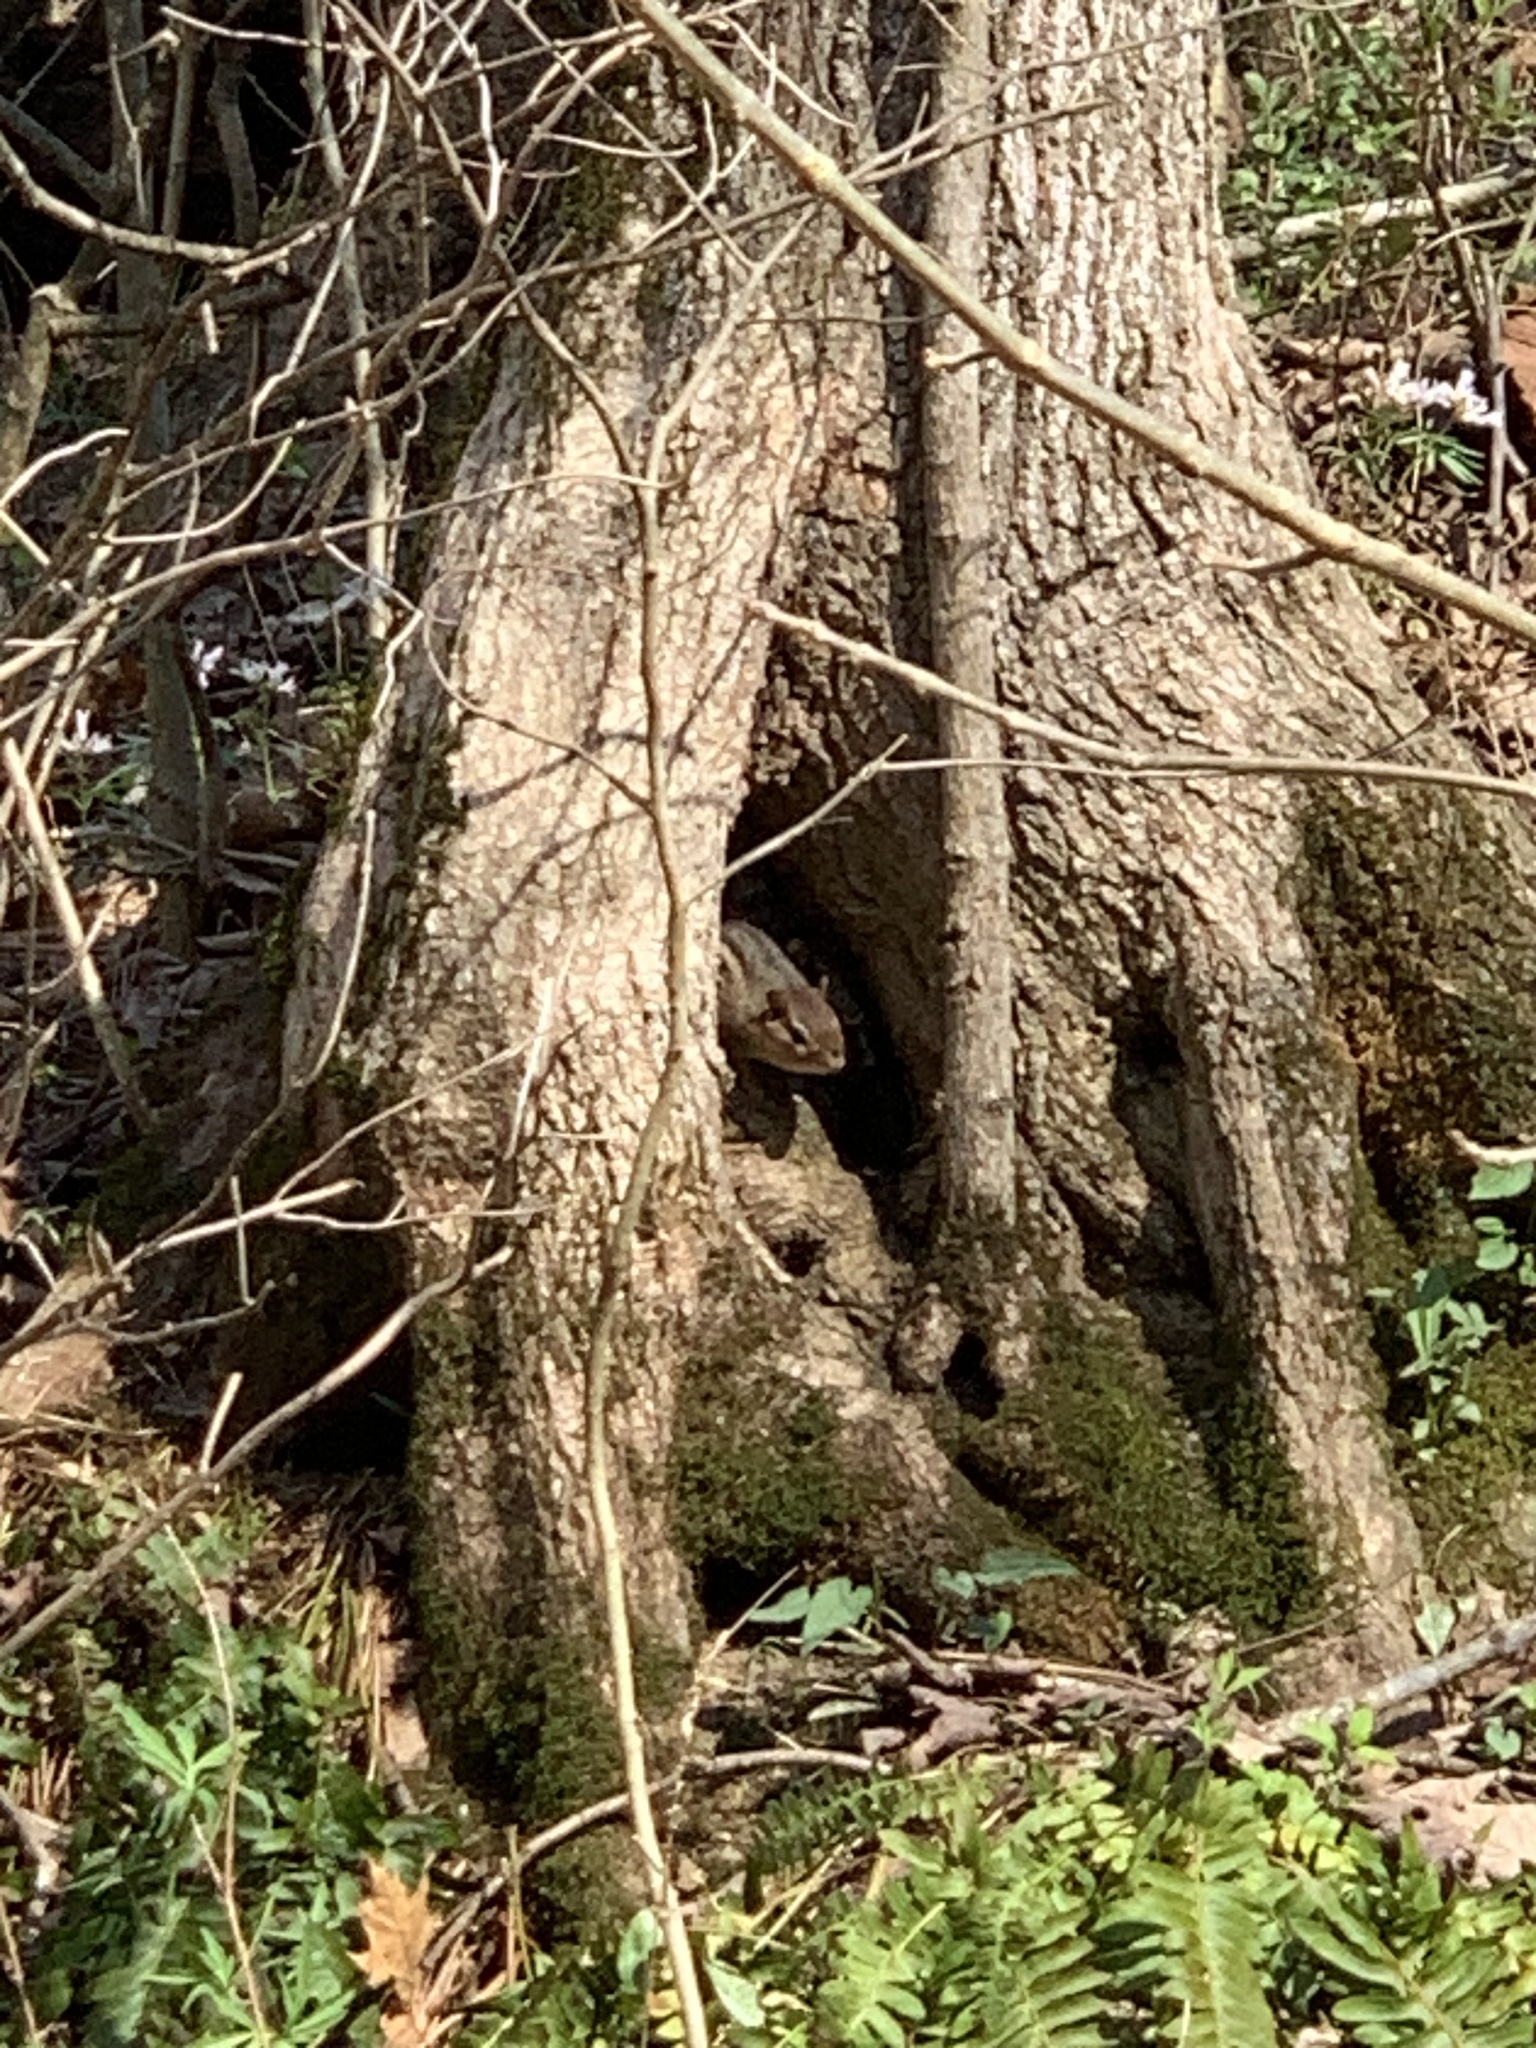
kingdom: Animalia
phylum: Chordata
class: Mammalia
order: Rodentia
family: Sciuridae
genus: Tamias
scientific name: Tamias striatus
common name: Eastern chipmunk
